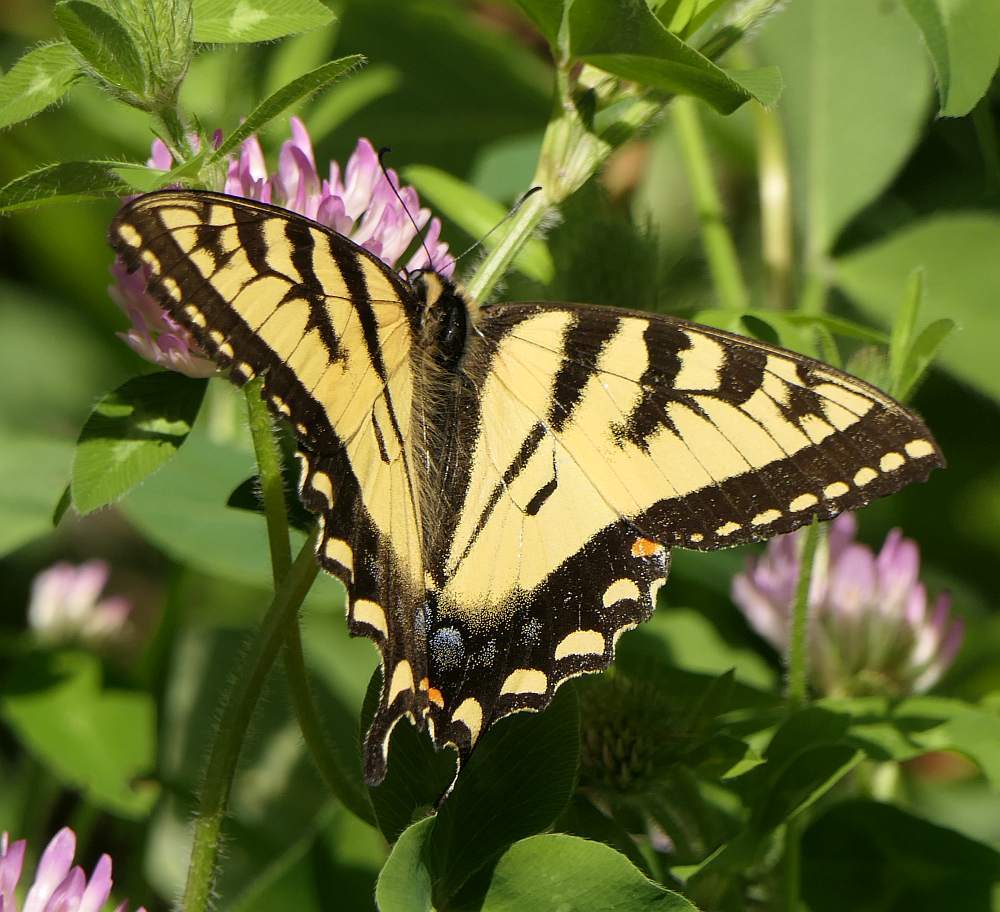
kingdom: Animalia
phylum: Arthropoda
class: Insecta
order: Lepidoptera
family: Papilionidae
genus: Papilio
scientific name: Papilio canadensis
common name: Canadian tiger swallowtail
